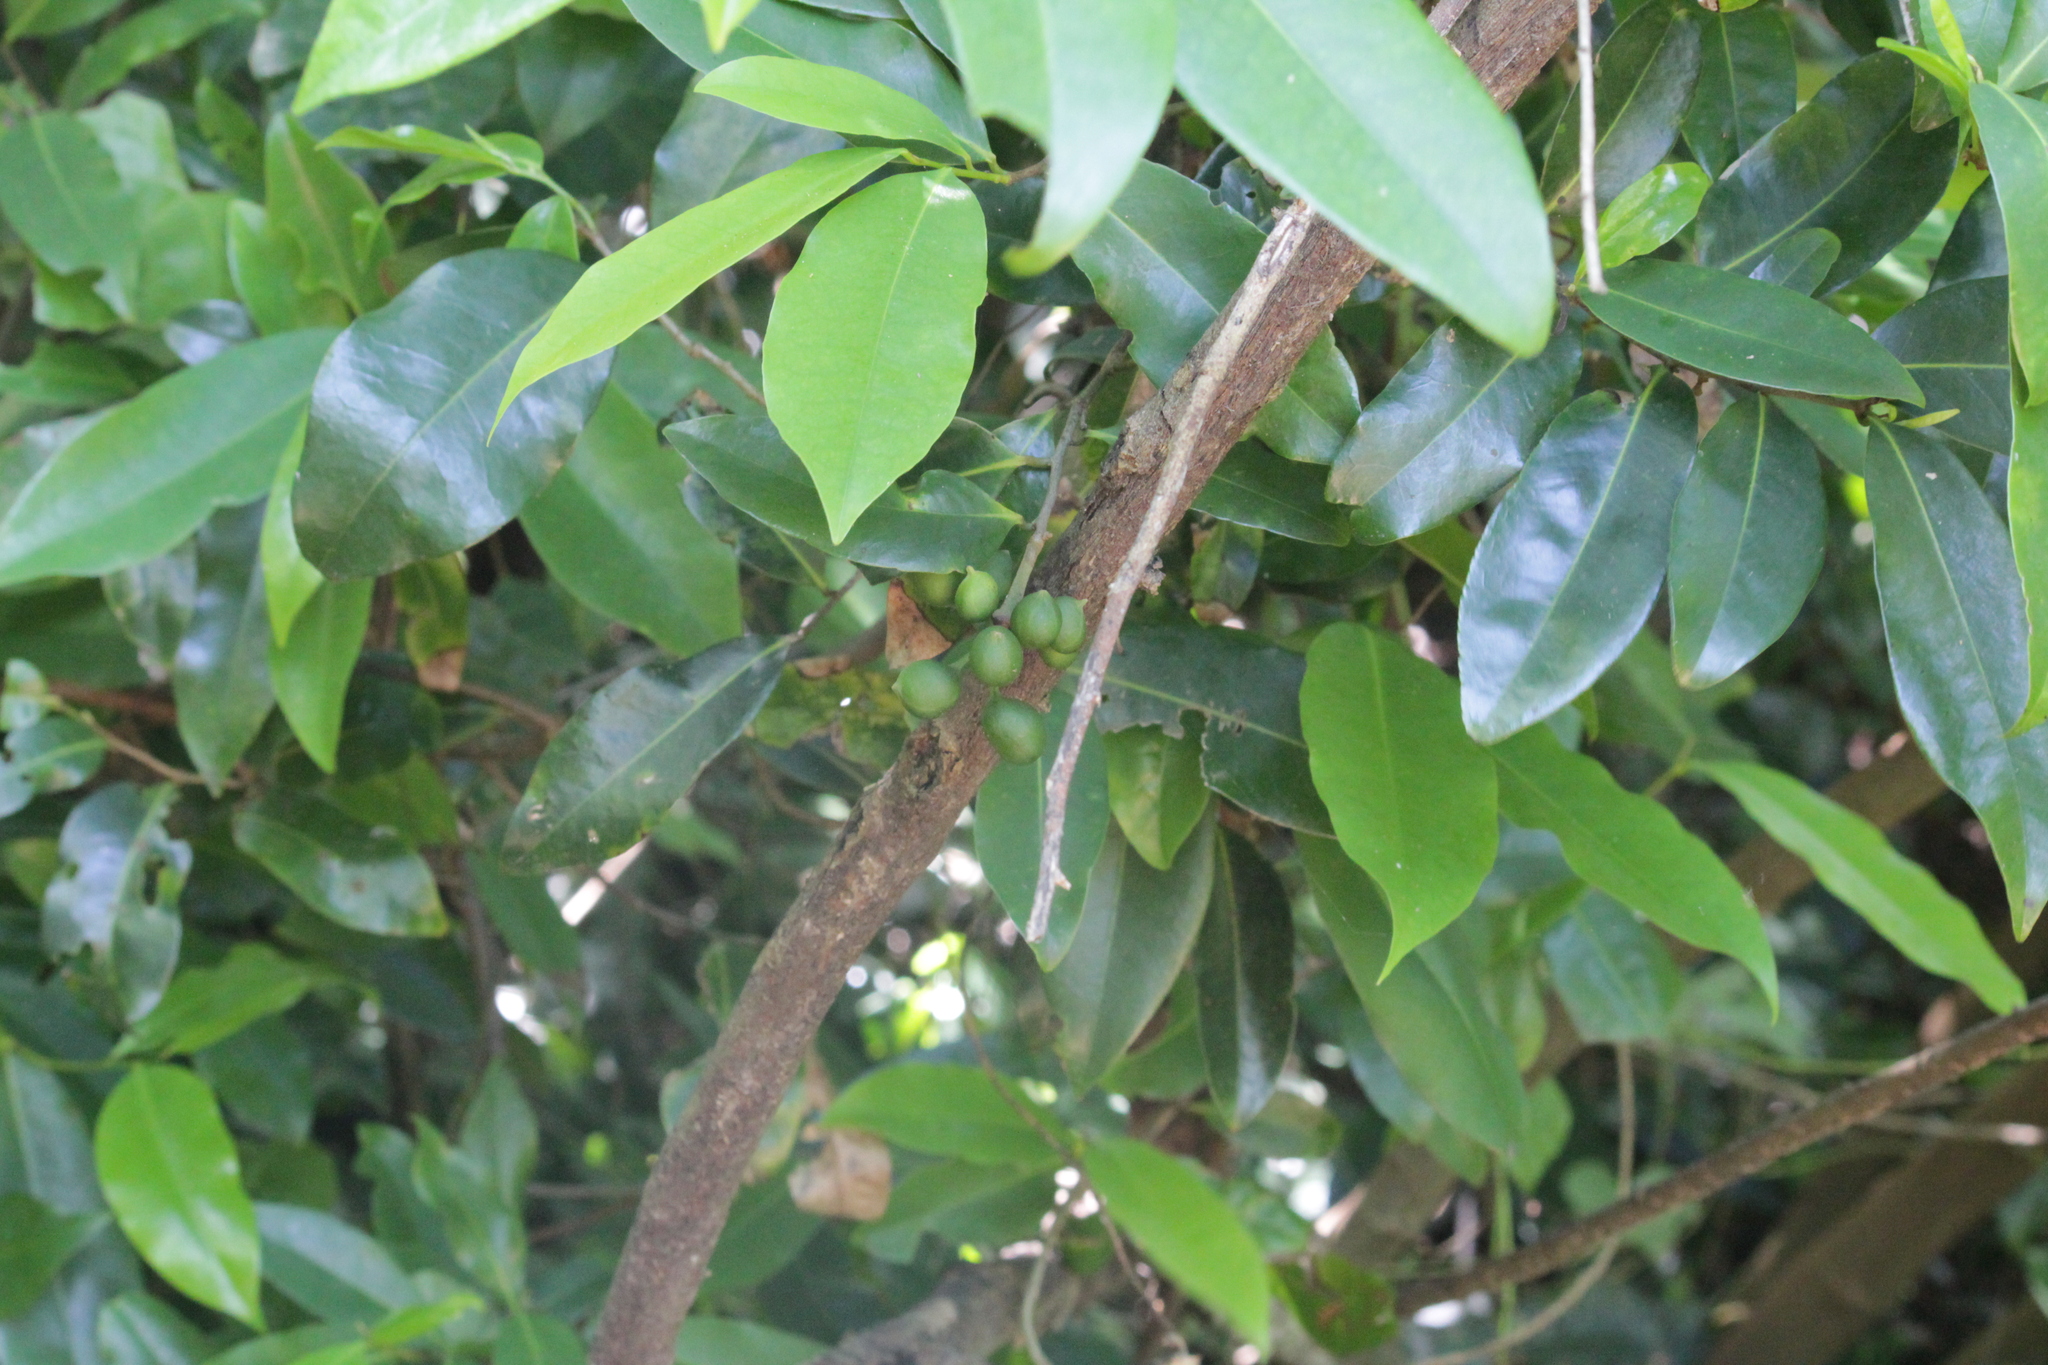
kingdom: Plantae
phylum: Tracheophyta
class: Magnoliopsida
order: Magnoliales
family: Annonaceae
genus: Uvaria
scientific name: Uvaria caffra
